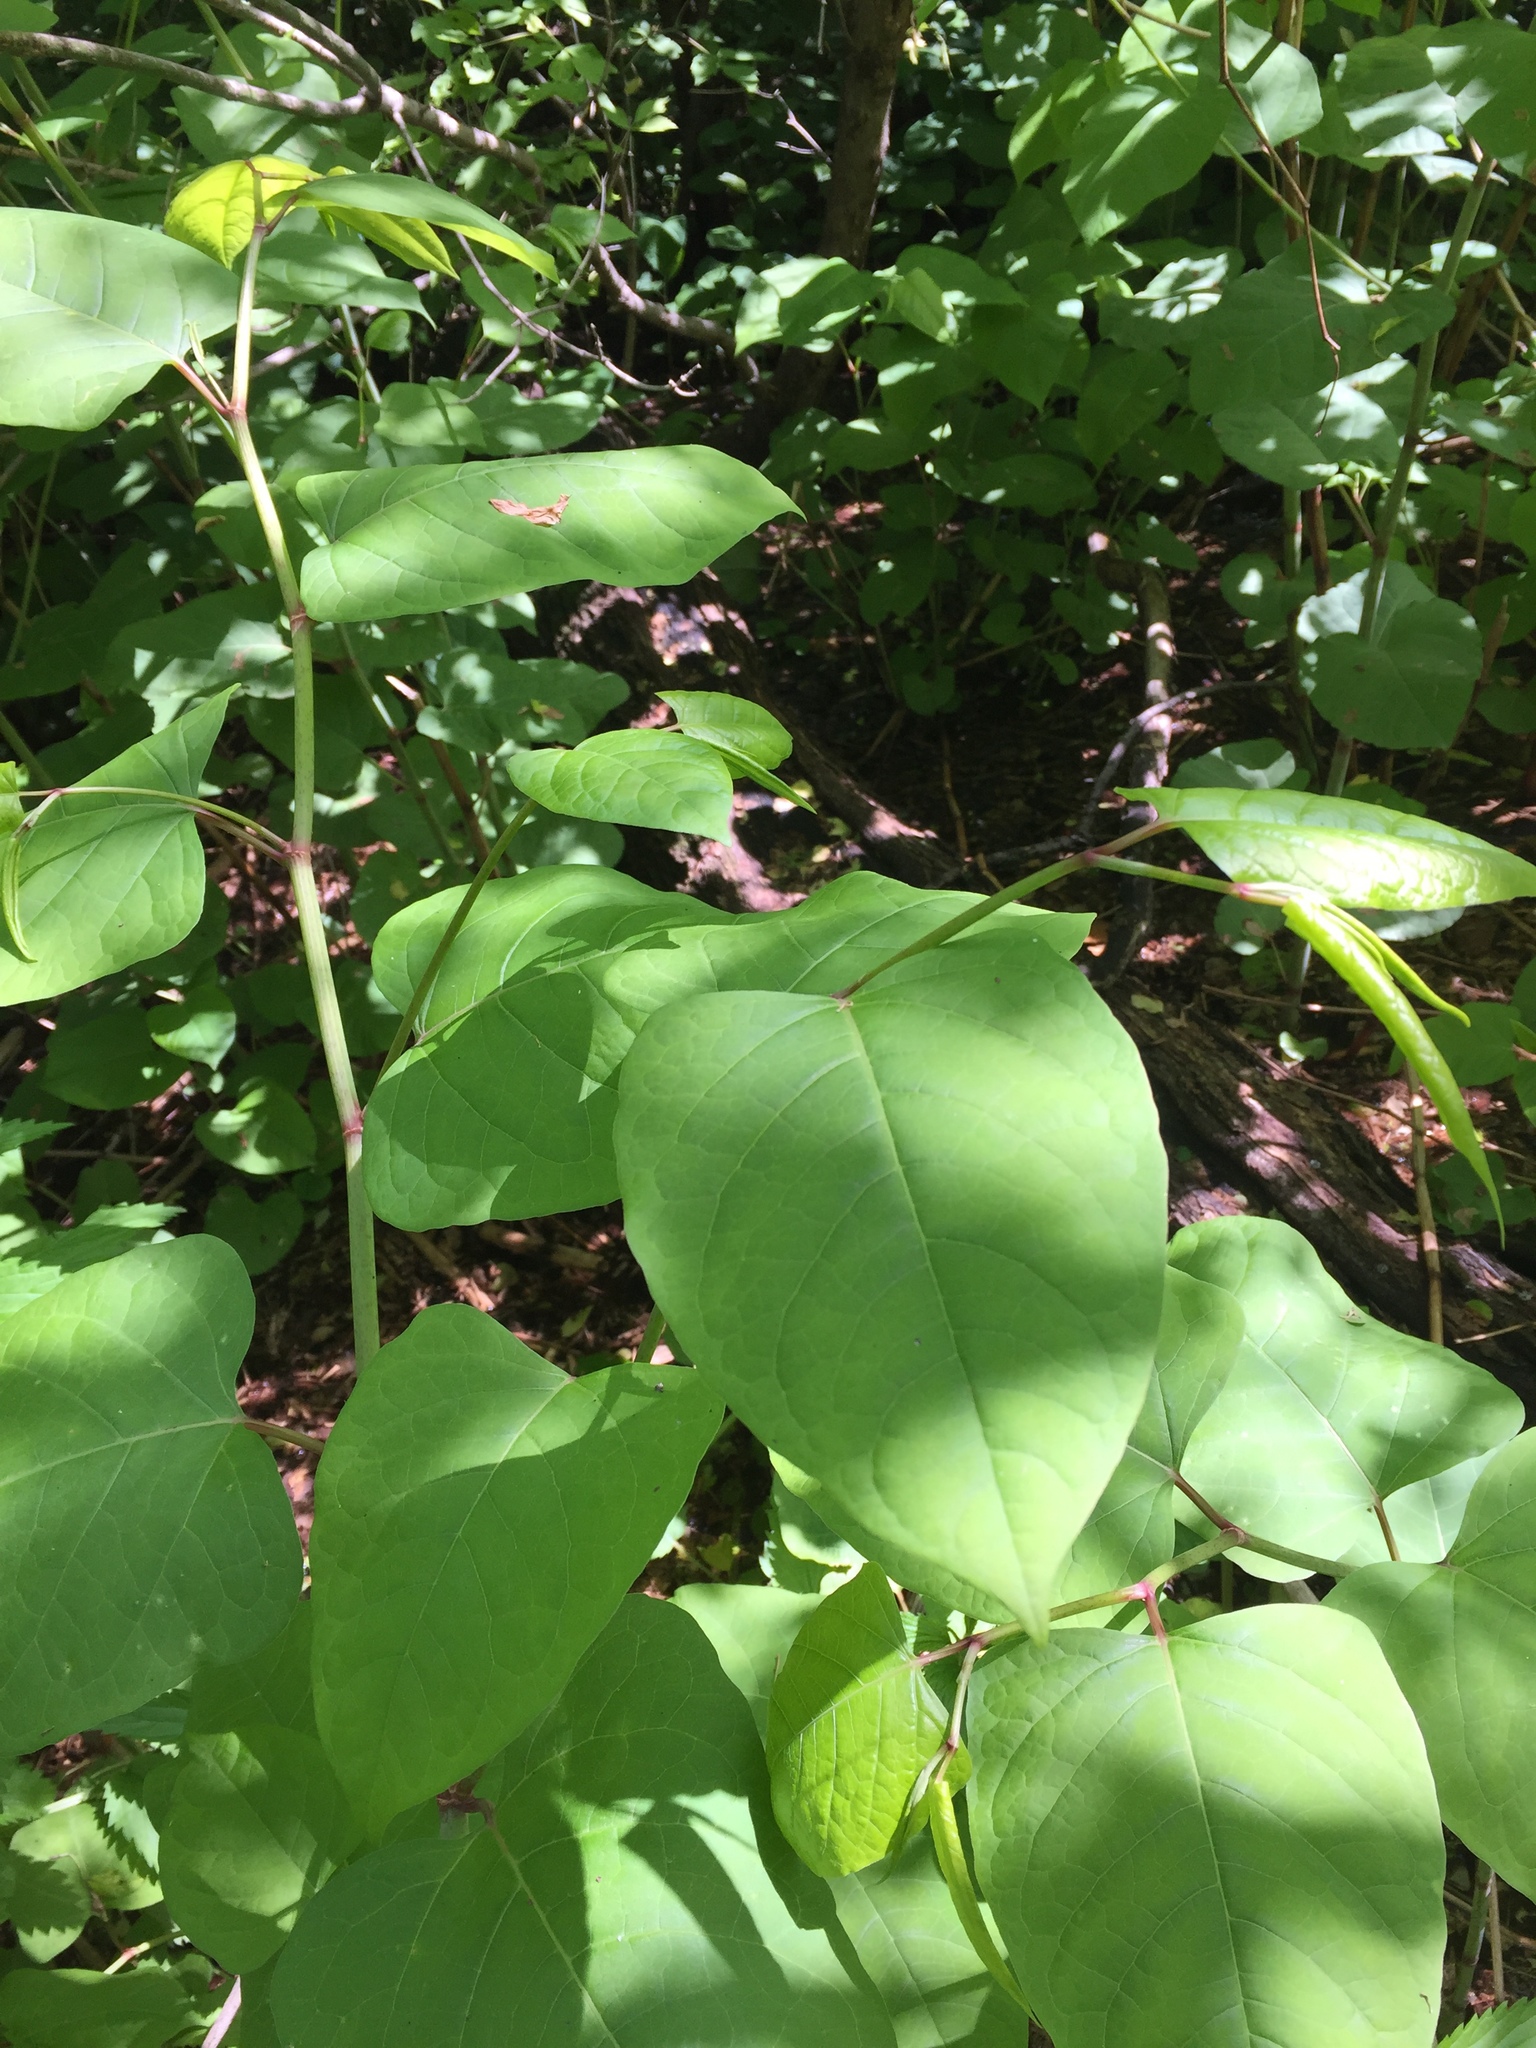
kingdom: Plantae
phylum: Tracheophyta
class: Magnoliopsida
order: Caryophyllales
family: Polygonaceae
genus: Reynoutria
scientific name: Reynoutria japonica
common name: Japanese knotweed
